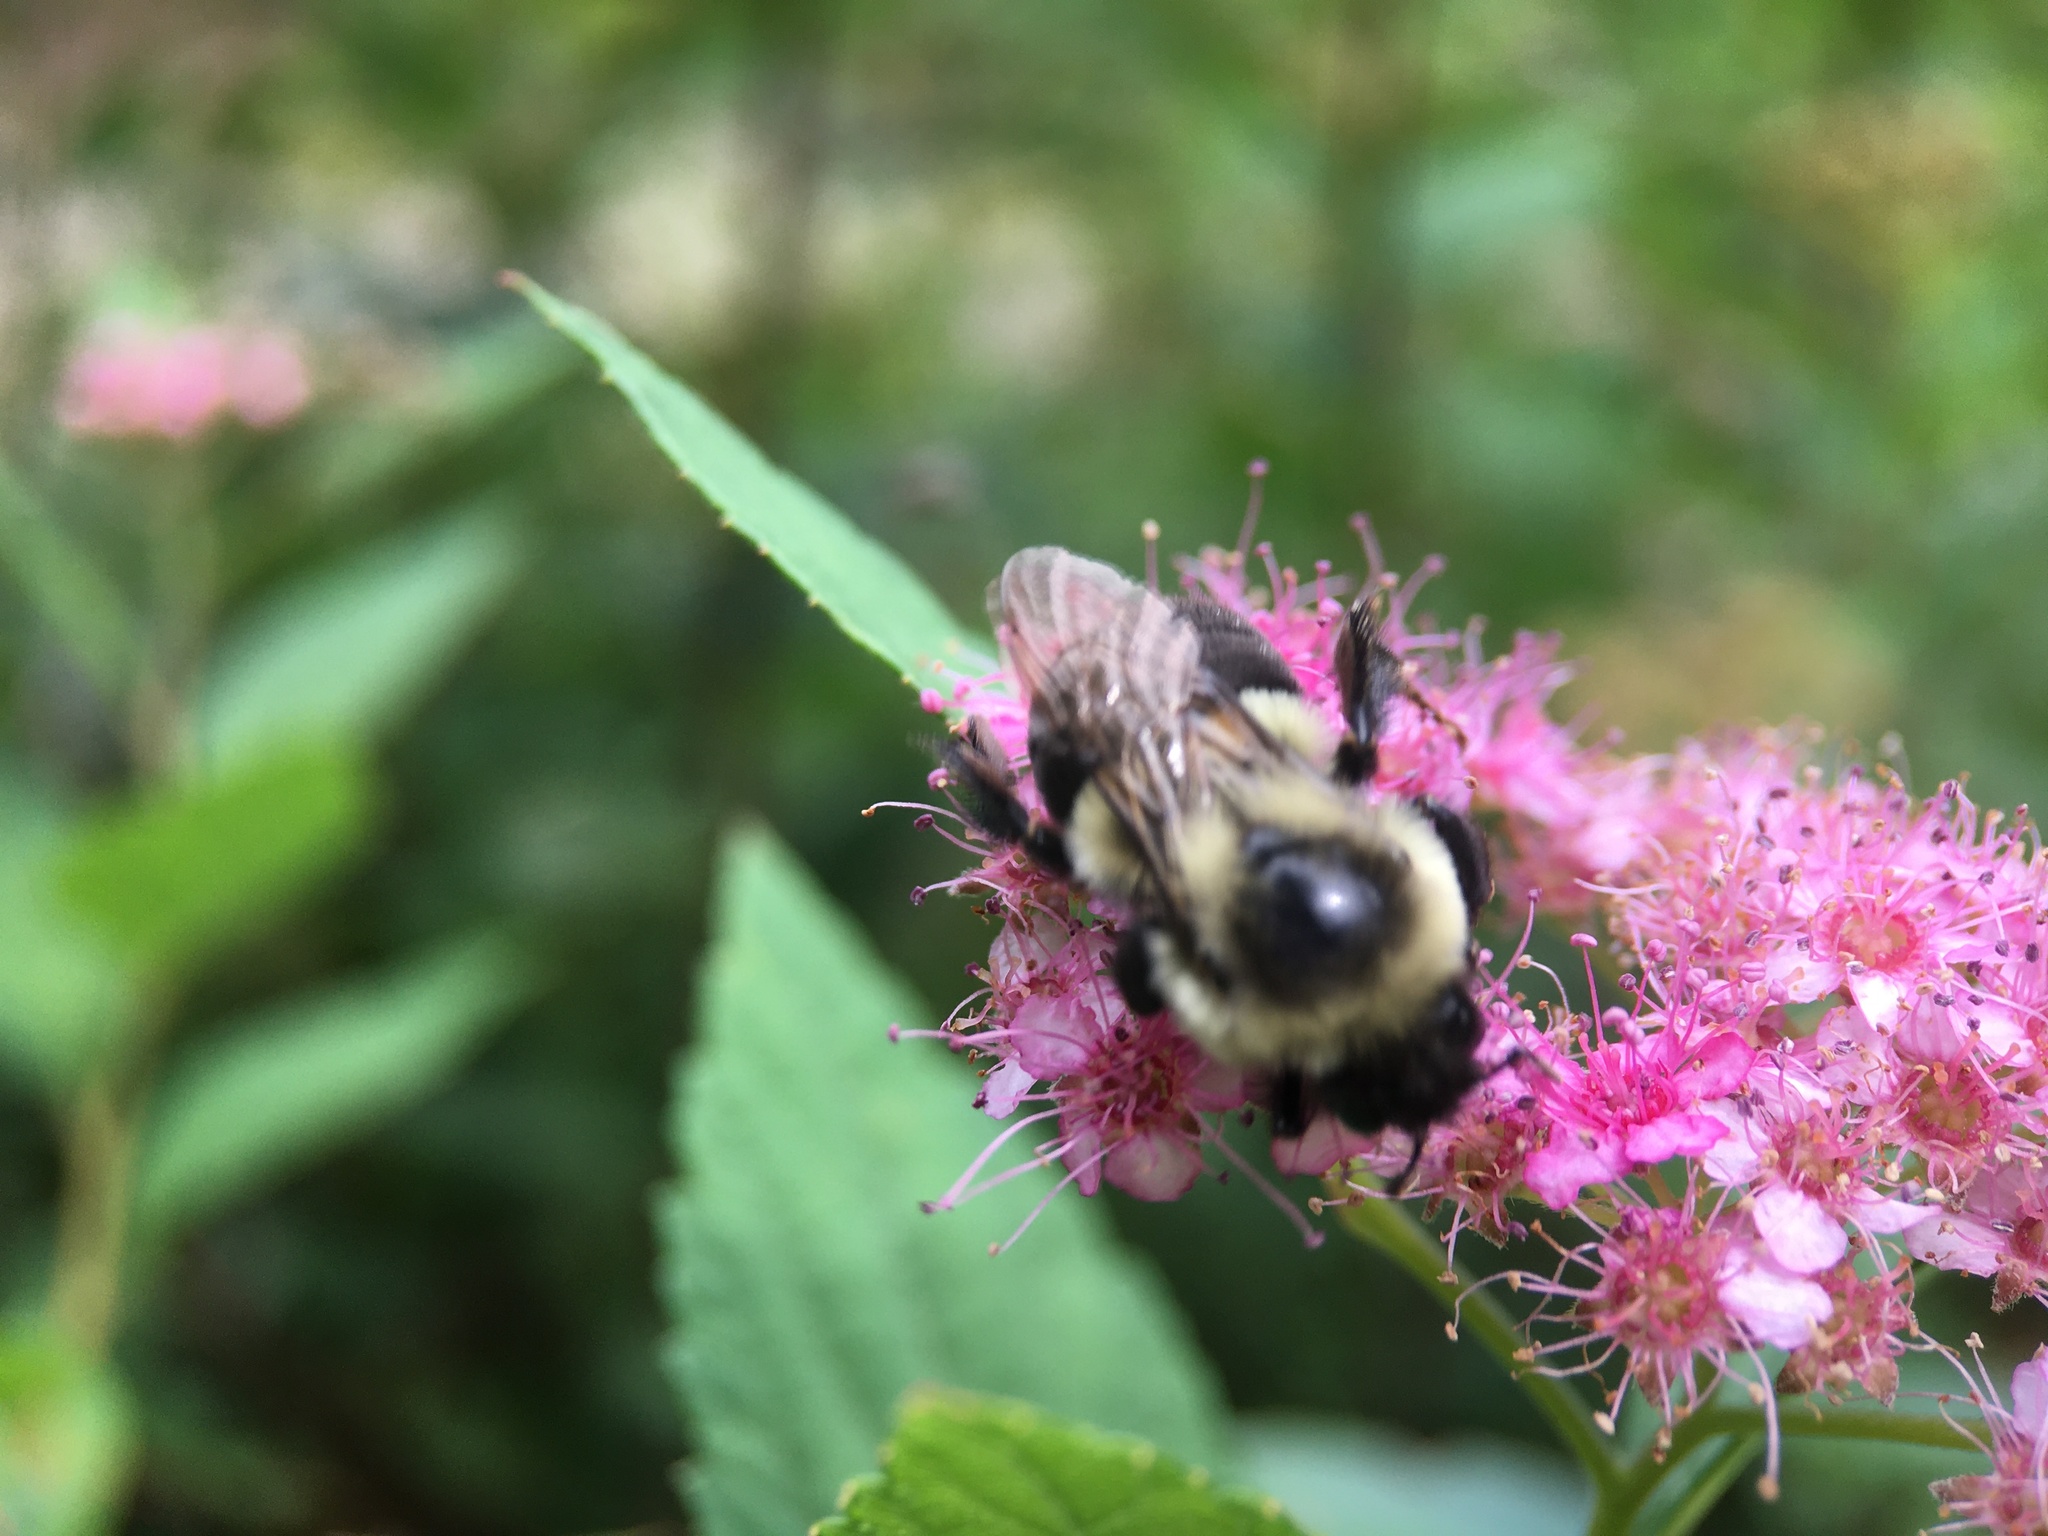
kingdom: Animalia
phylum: Arthropoda
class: Insecta
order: Hymenoptera
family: Apidae
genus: Bombus
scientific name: Bombus impatiens
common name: Common eastern bumble bee
